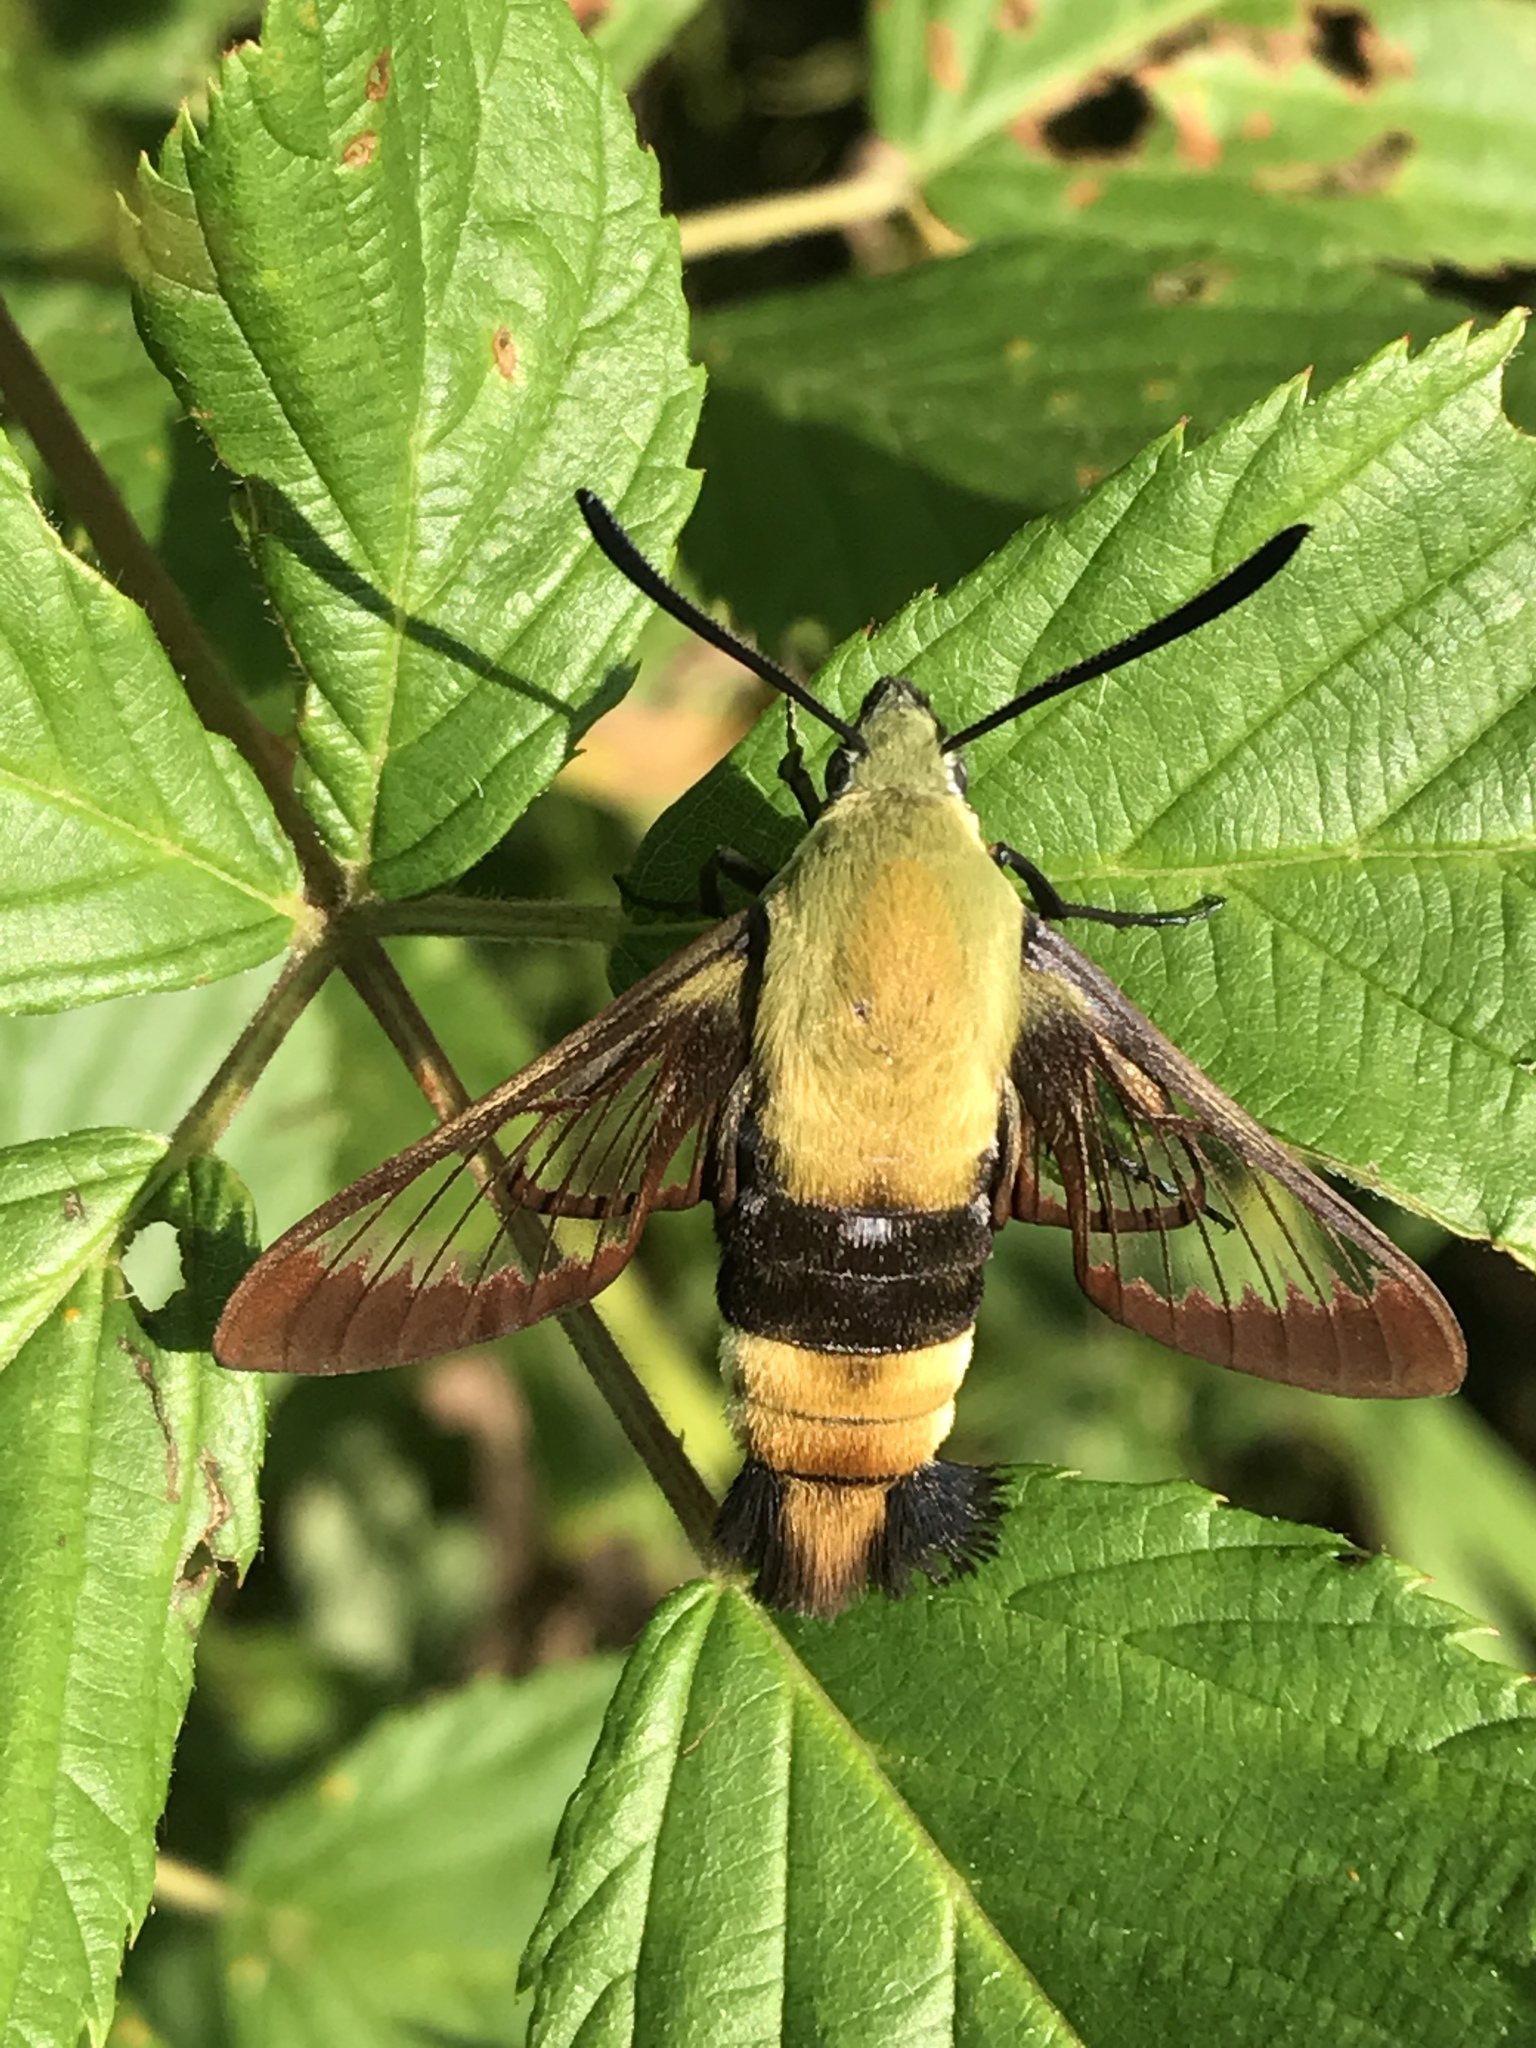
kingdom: Animalia
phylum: Arthropoda
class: Insecta
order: Lepidoptera
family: Sphingidae
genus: Hemaris
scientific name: Hemaris diffinis
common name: Bumblebee moth
